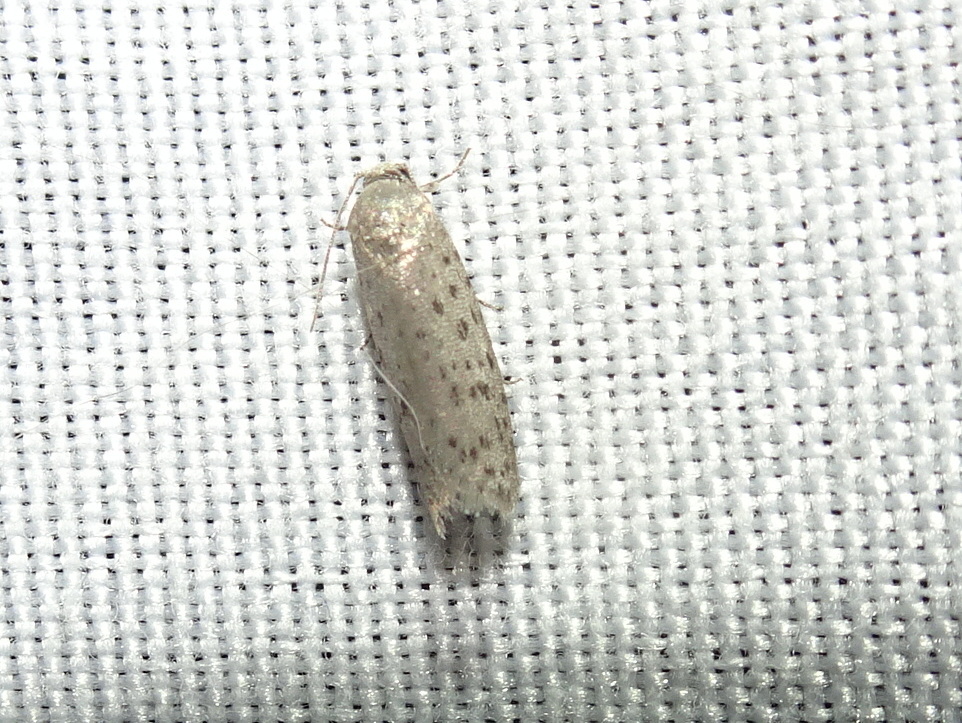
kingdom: Animalia
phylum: Arthropoda
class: Insecta
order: Lepidoptera
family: Galacticidae
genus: Homadaula
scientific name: Homadaula anisocentra
